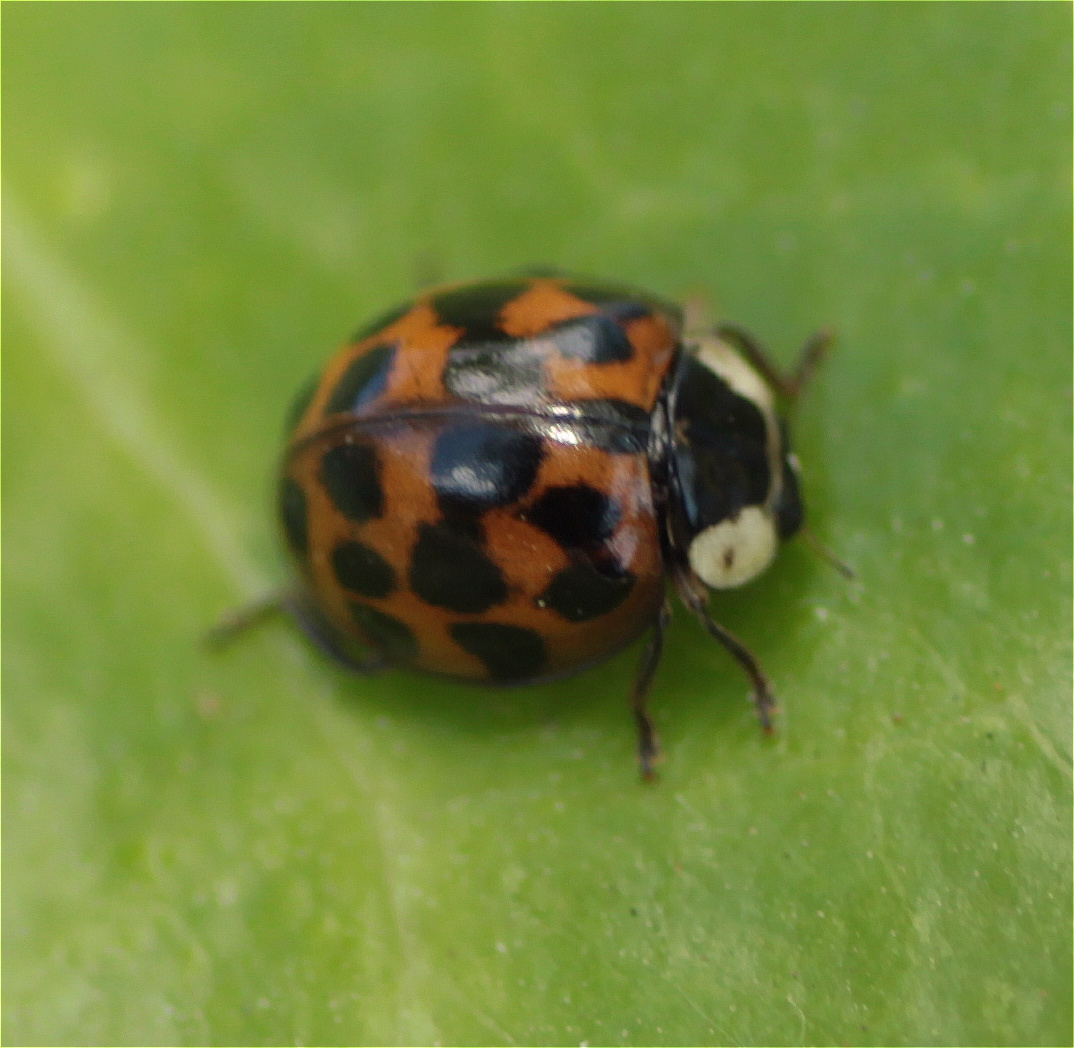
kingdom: Animalia
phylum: Arthropoda
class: Insecta
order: Coleoptera
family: Coccinellidae
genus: Harmonia
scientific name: Harmonia axyridis
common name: Harlequin ladybird
